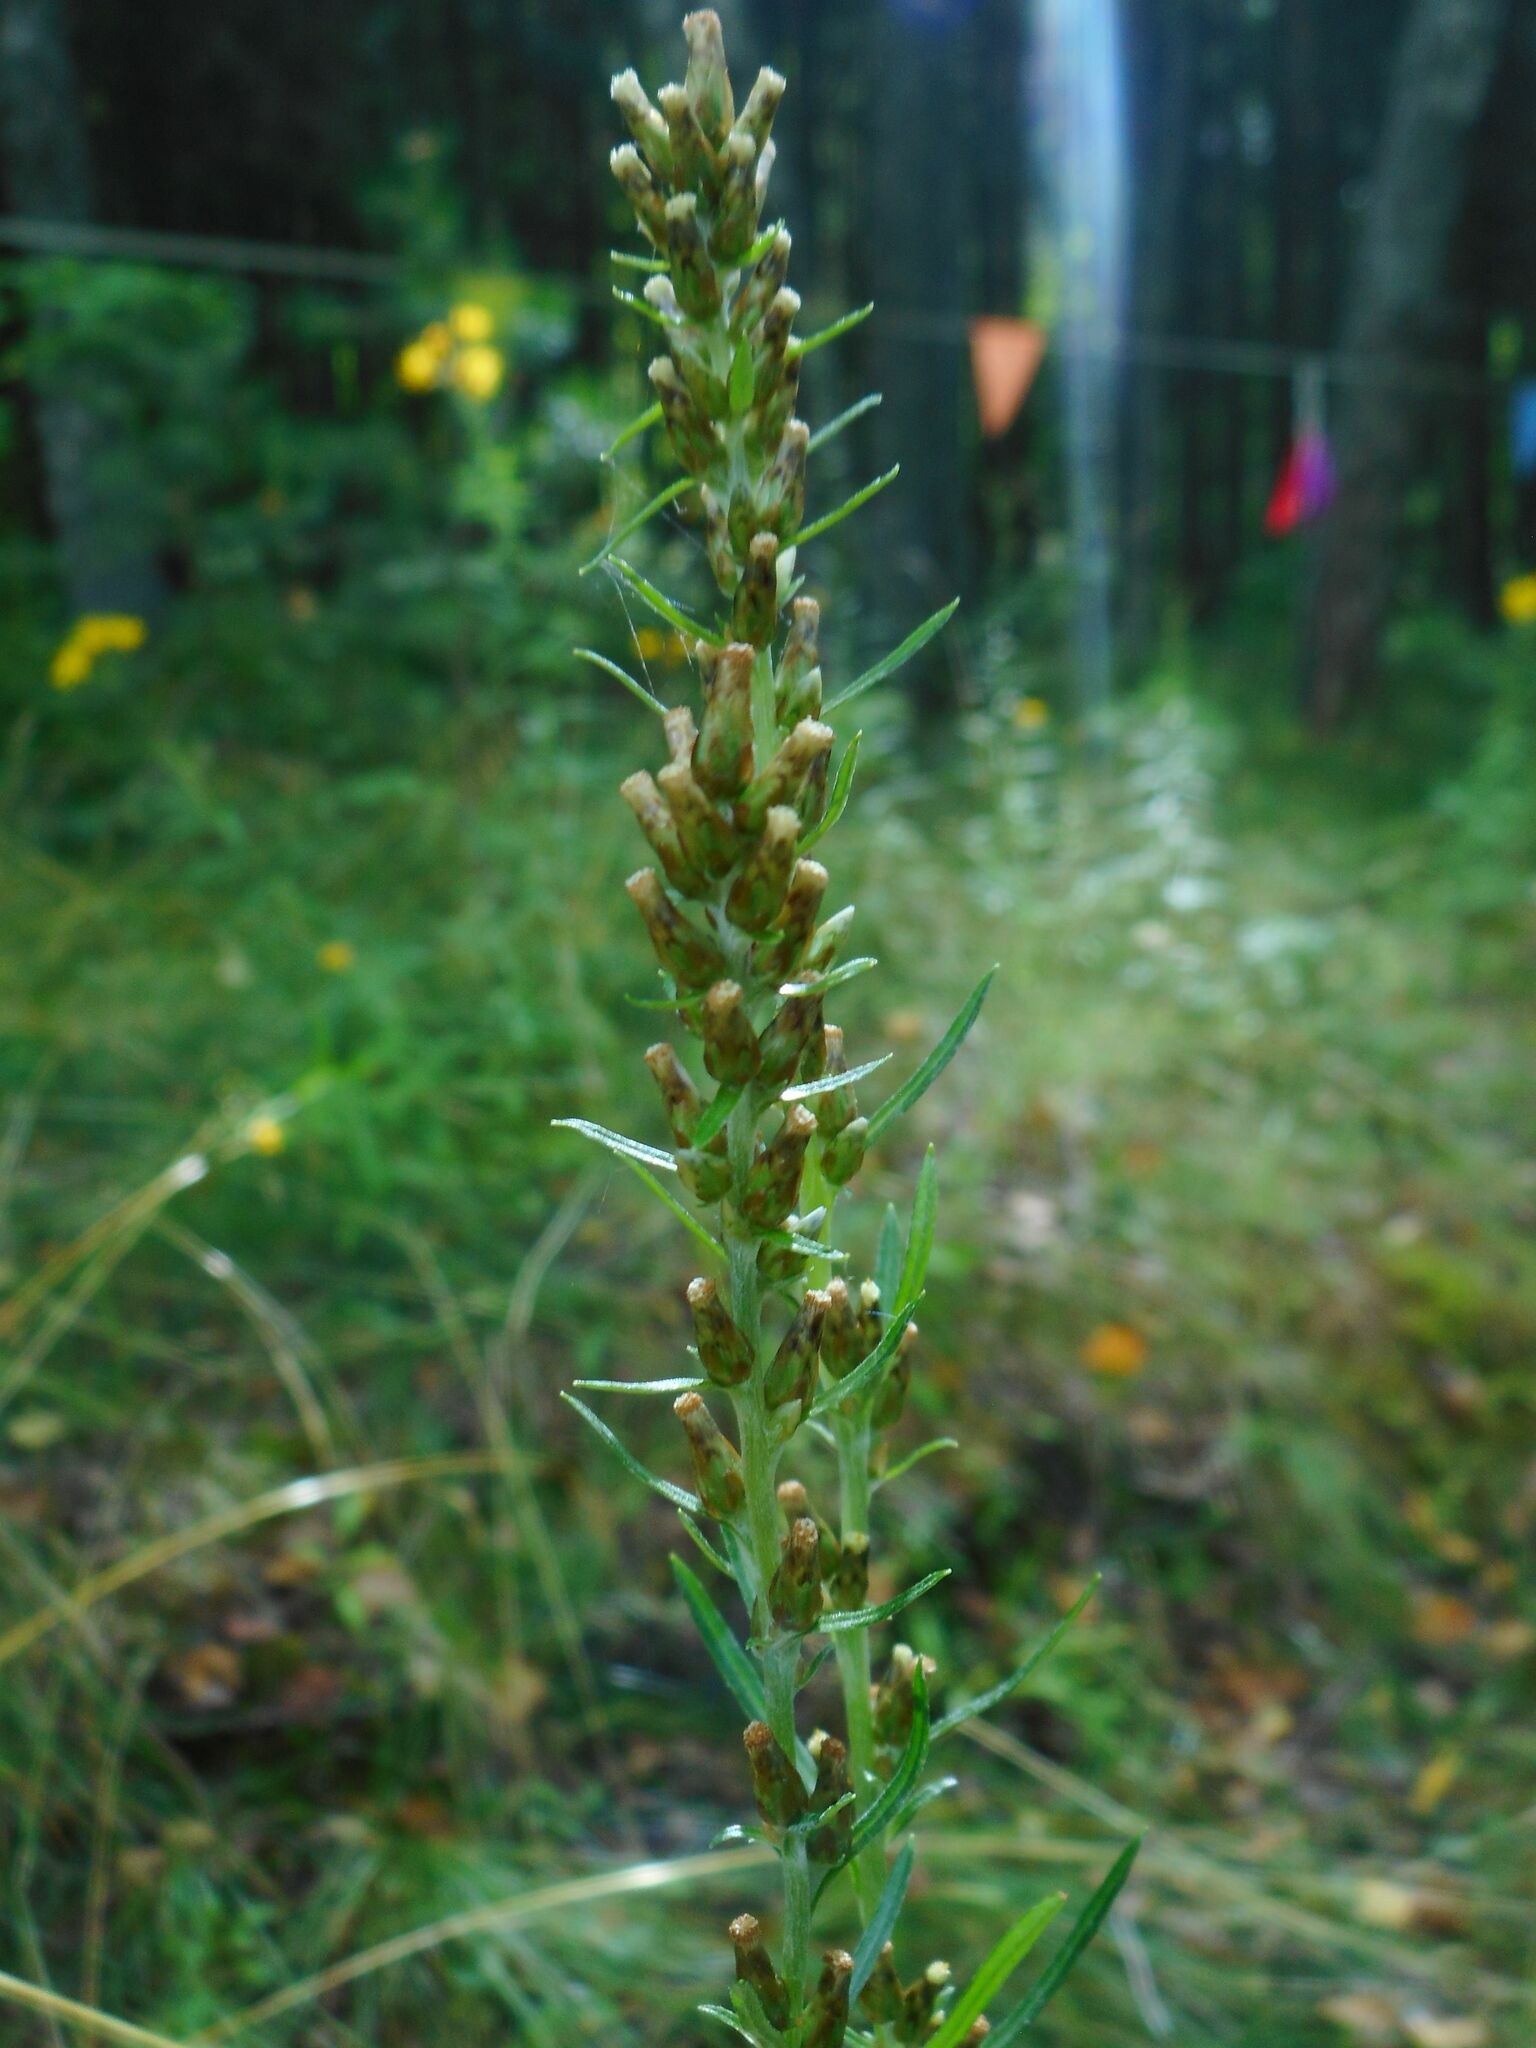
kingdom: Plantae
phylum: Tracheophyta
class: Magnoliopsida
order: Asterales
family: Asteraceae
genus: Omalotheca
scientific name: Omalotheca sylvatica
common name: Heath cudweed
